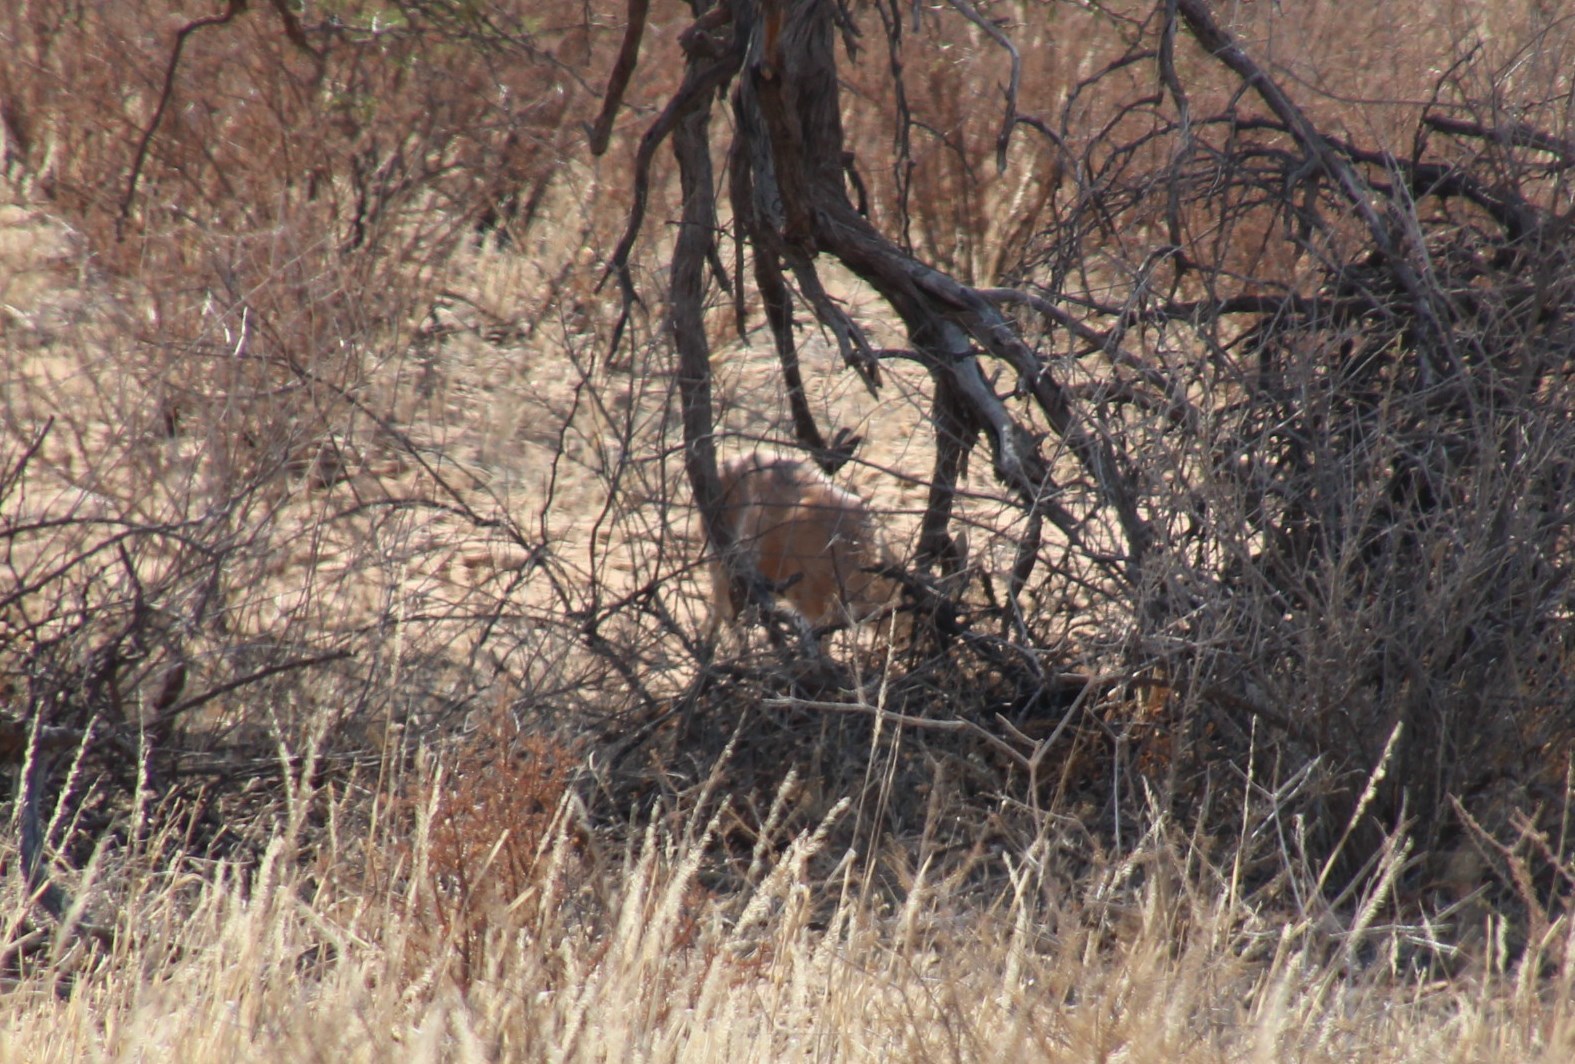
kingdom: Animalia
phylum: Chordata
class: Mammalia
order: Artiodactyla
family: Bovidae
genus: Raphicerus
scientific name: Raphicerus campestris
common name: Steenbok
